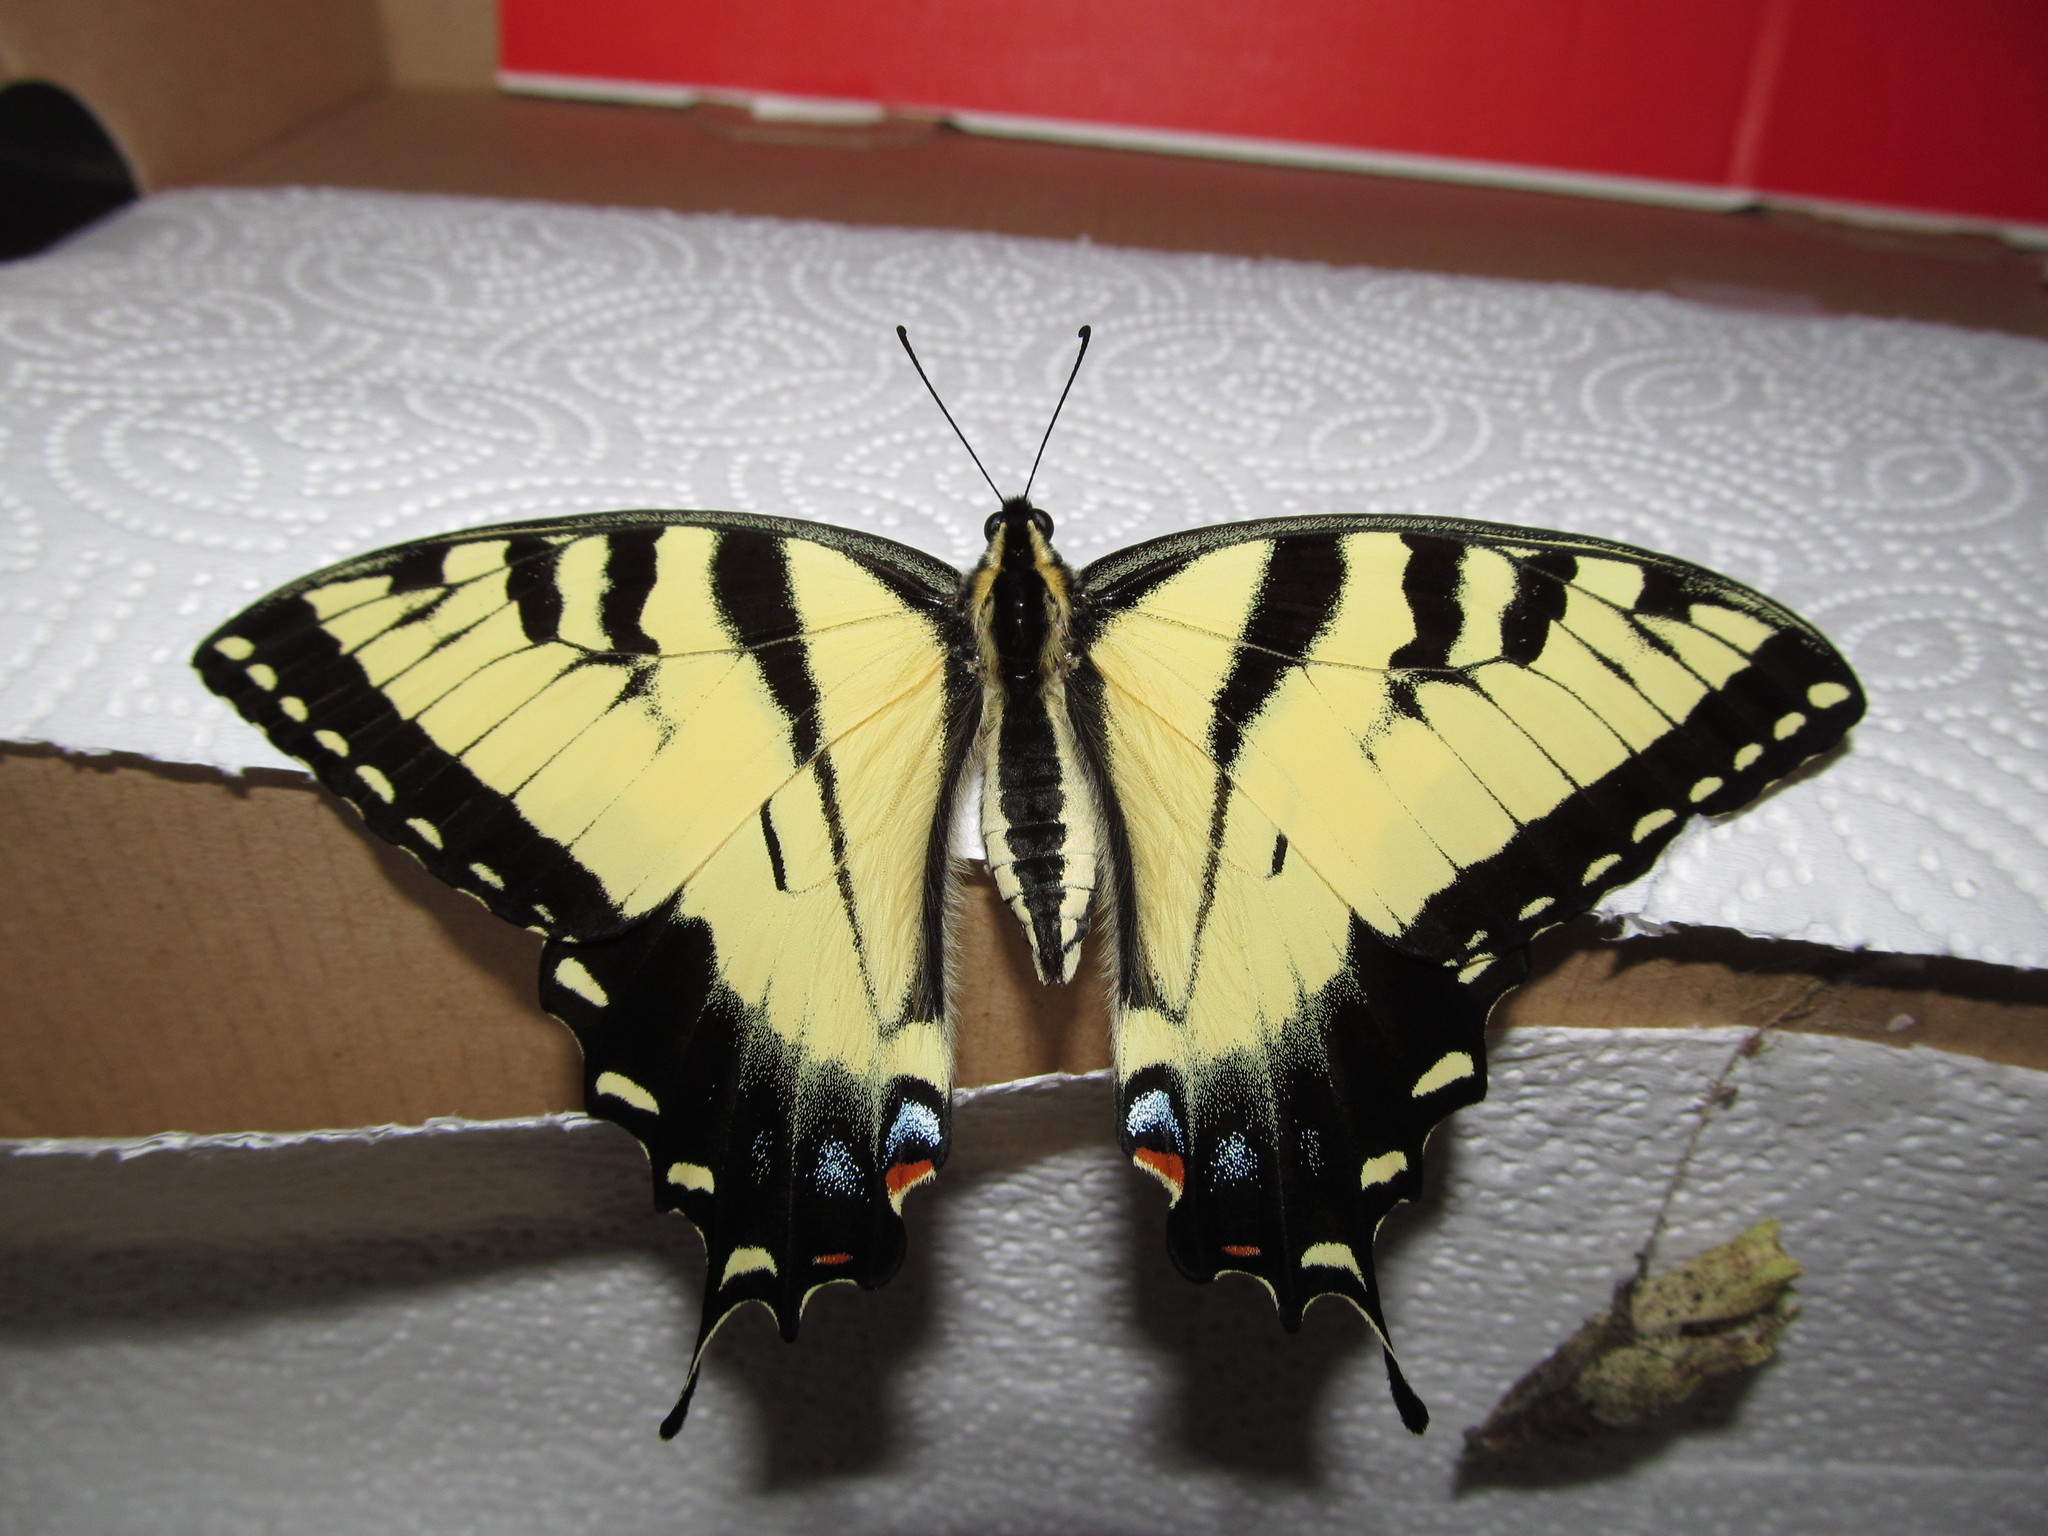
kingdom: Animalia
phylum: Arthropoda
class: Insecta
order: Lepidoptera
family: Papilionidae
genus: Papilio
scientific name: Papilio glaucus
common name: Tiger swallowtail
